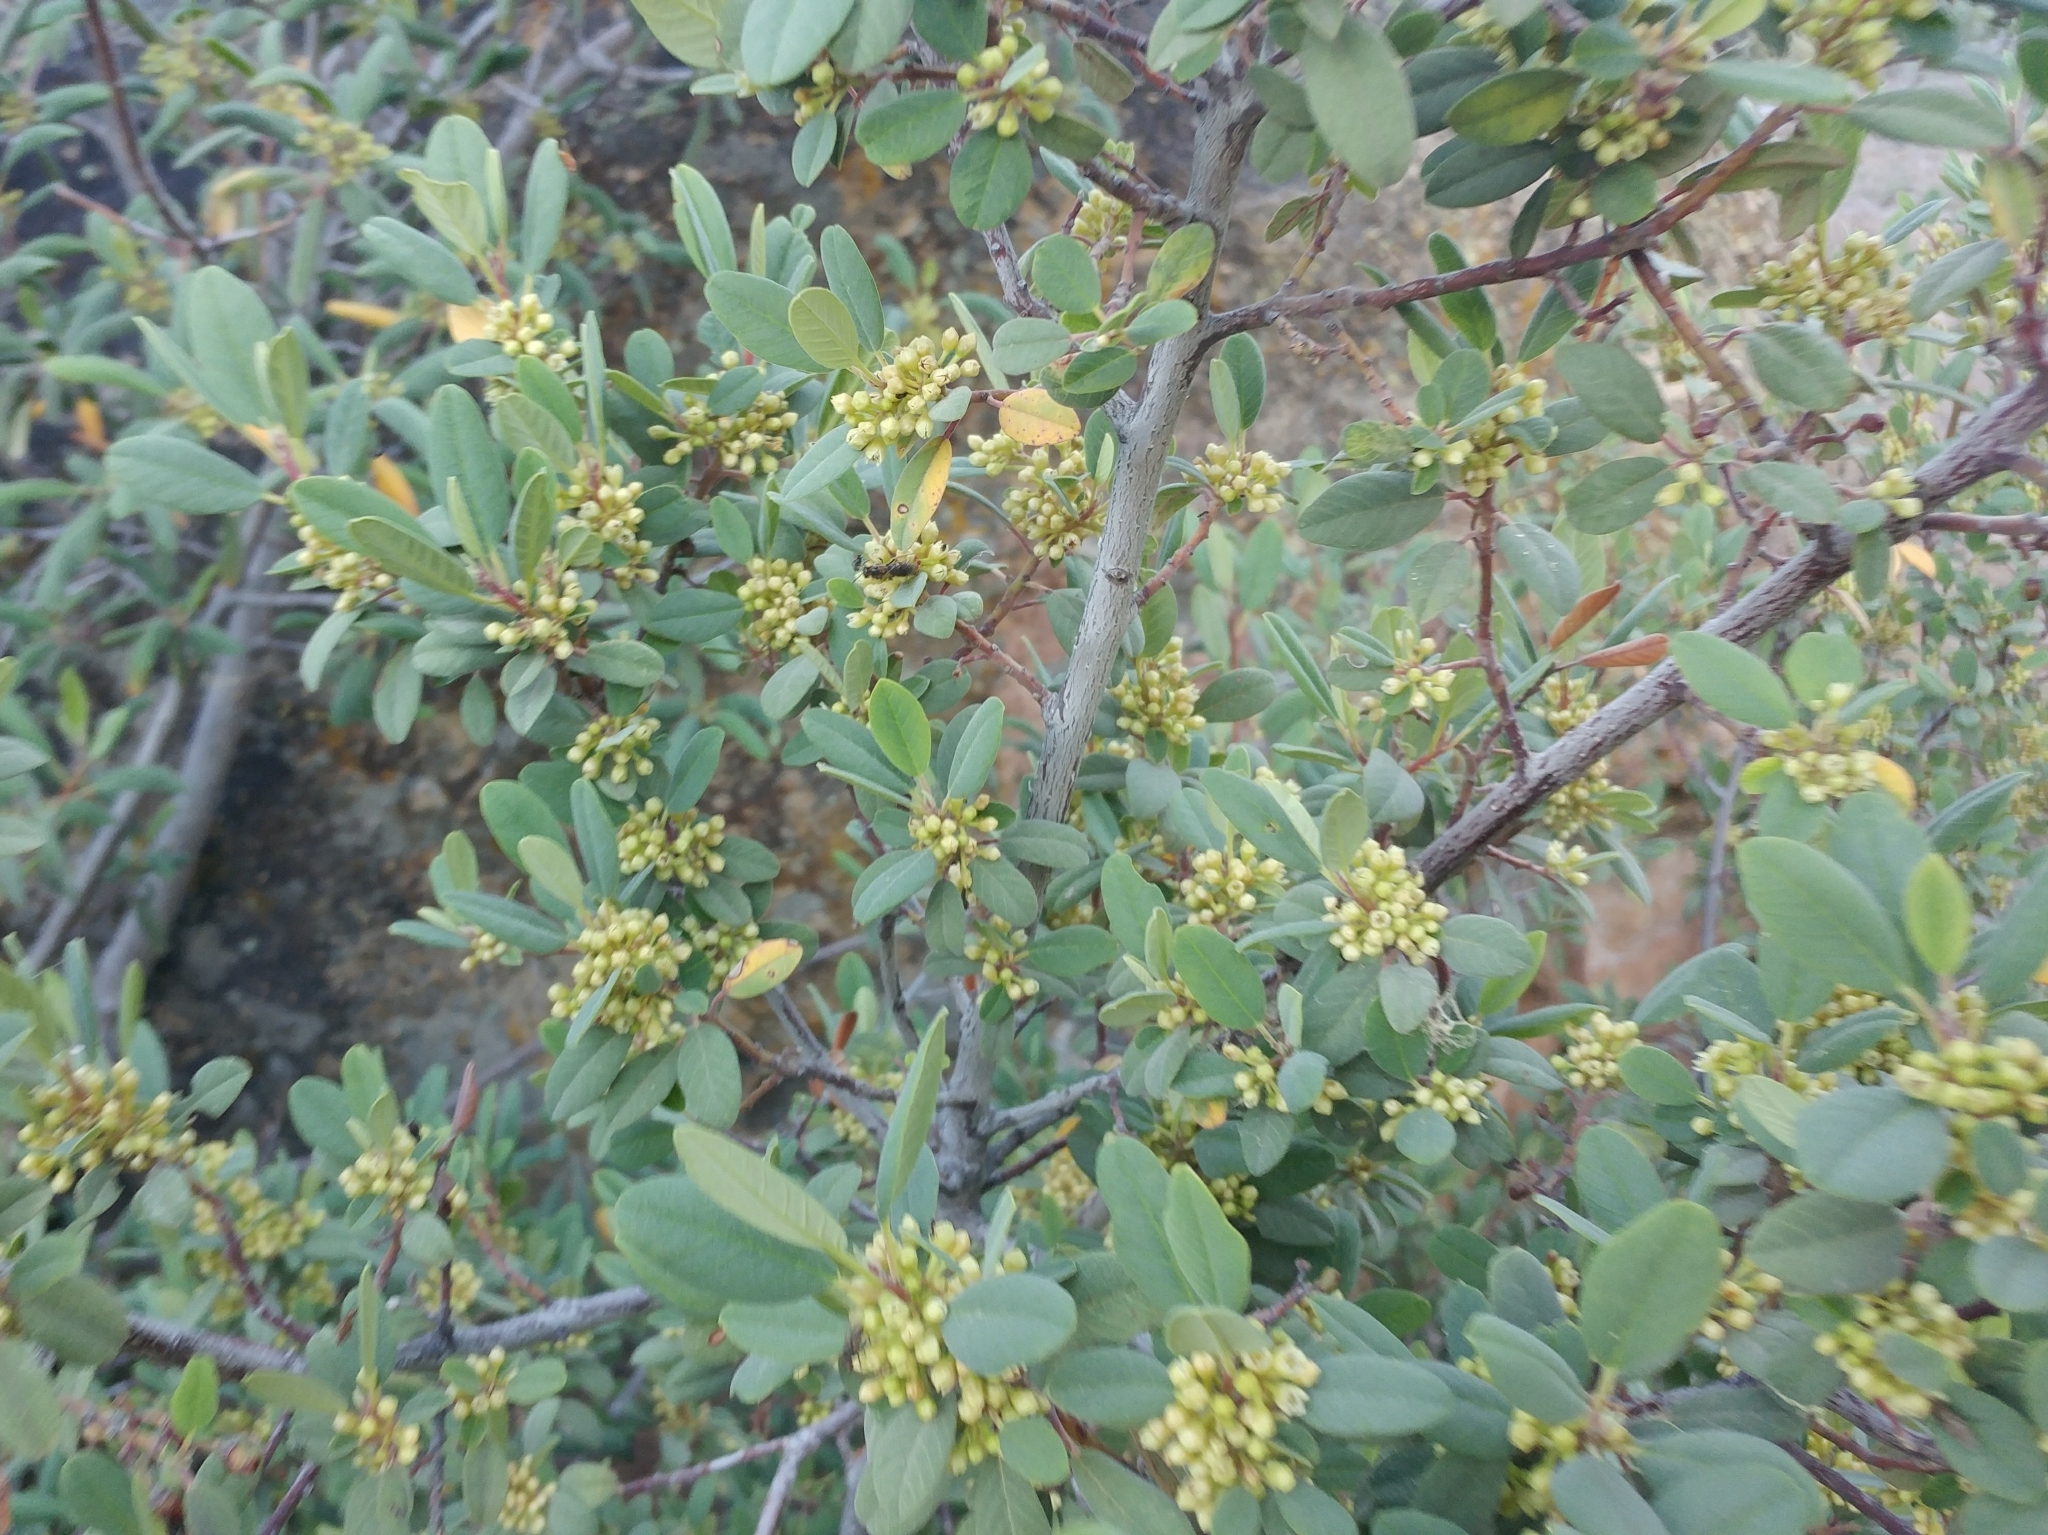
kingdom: Plantae
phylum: Tracheophyta
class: Magnoliopsida
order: Rosales
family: Rhamnaceae
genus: Frangula
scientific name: Frangula californica
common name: California buckthorn
